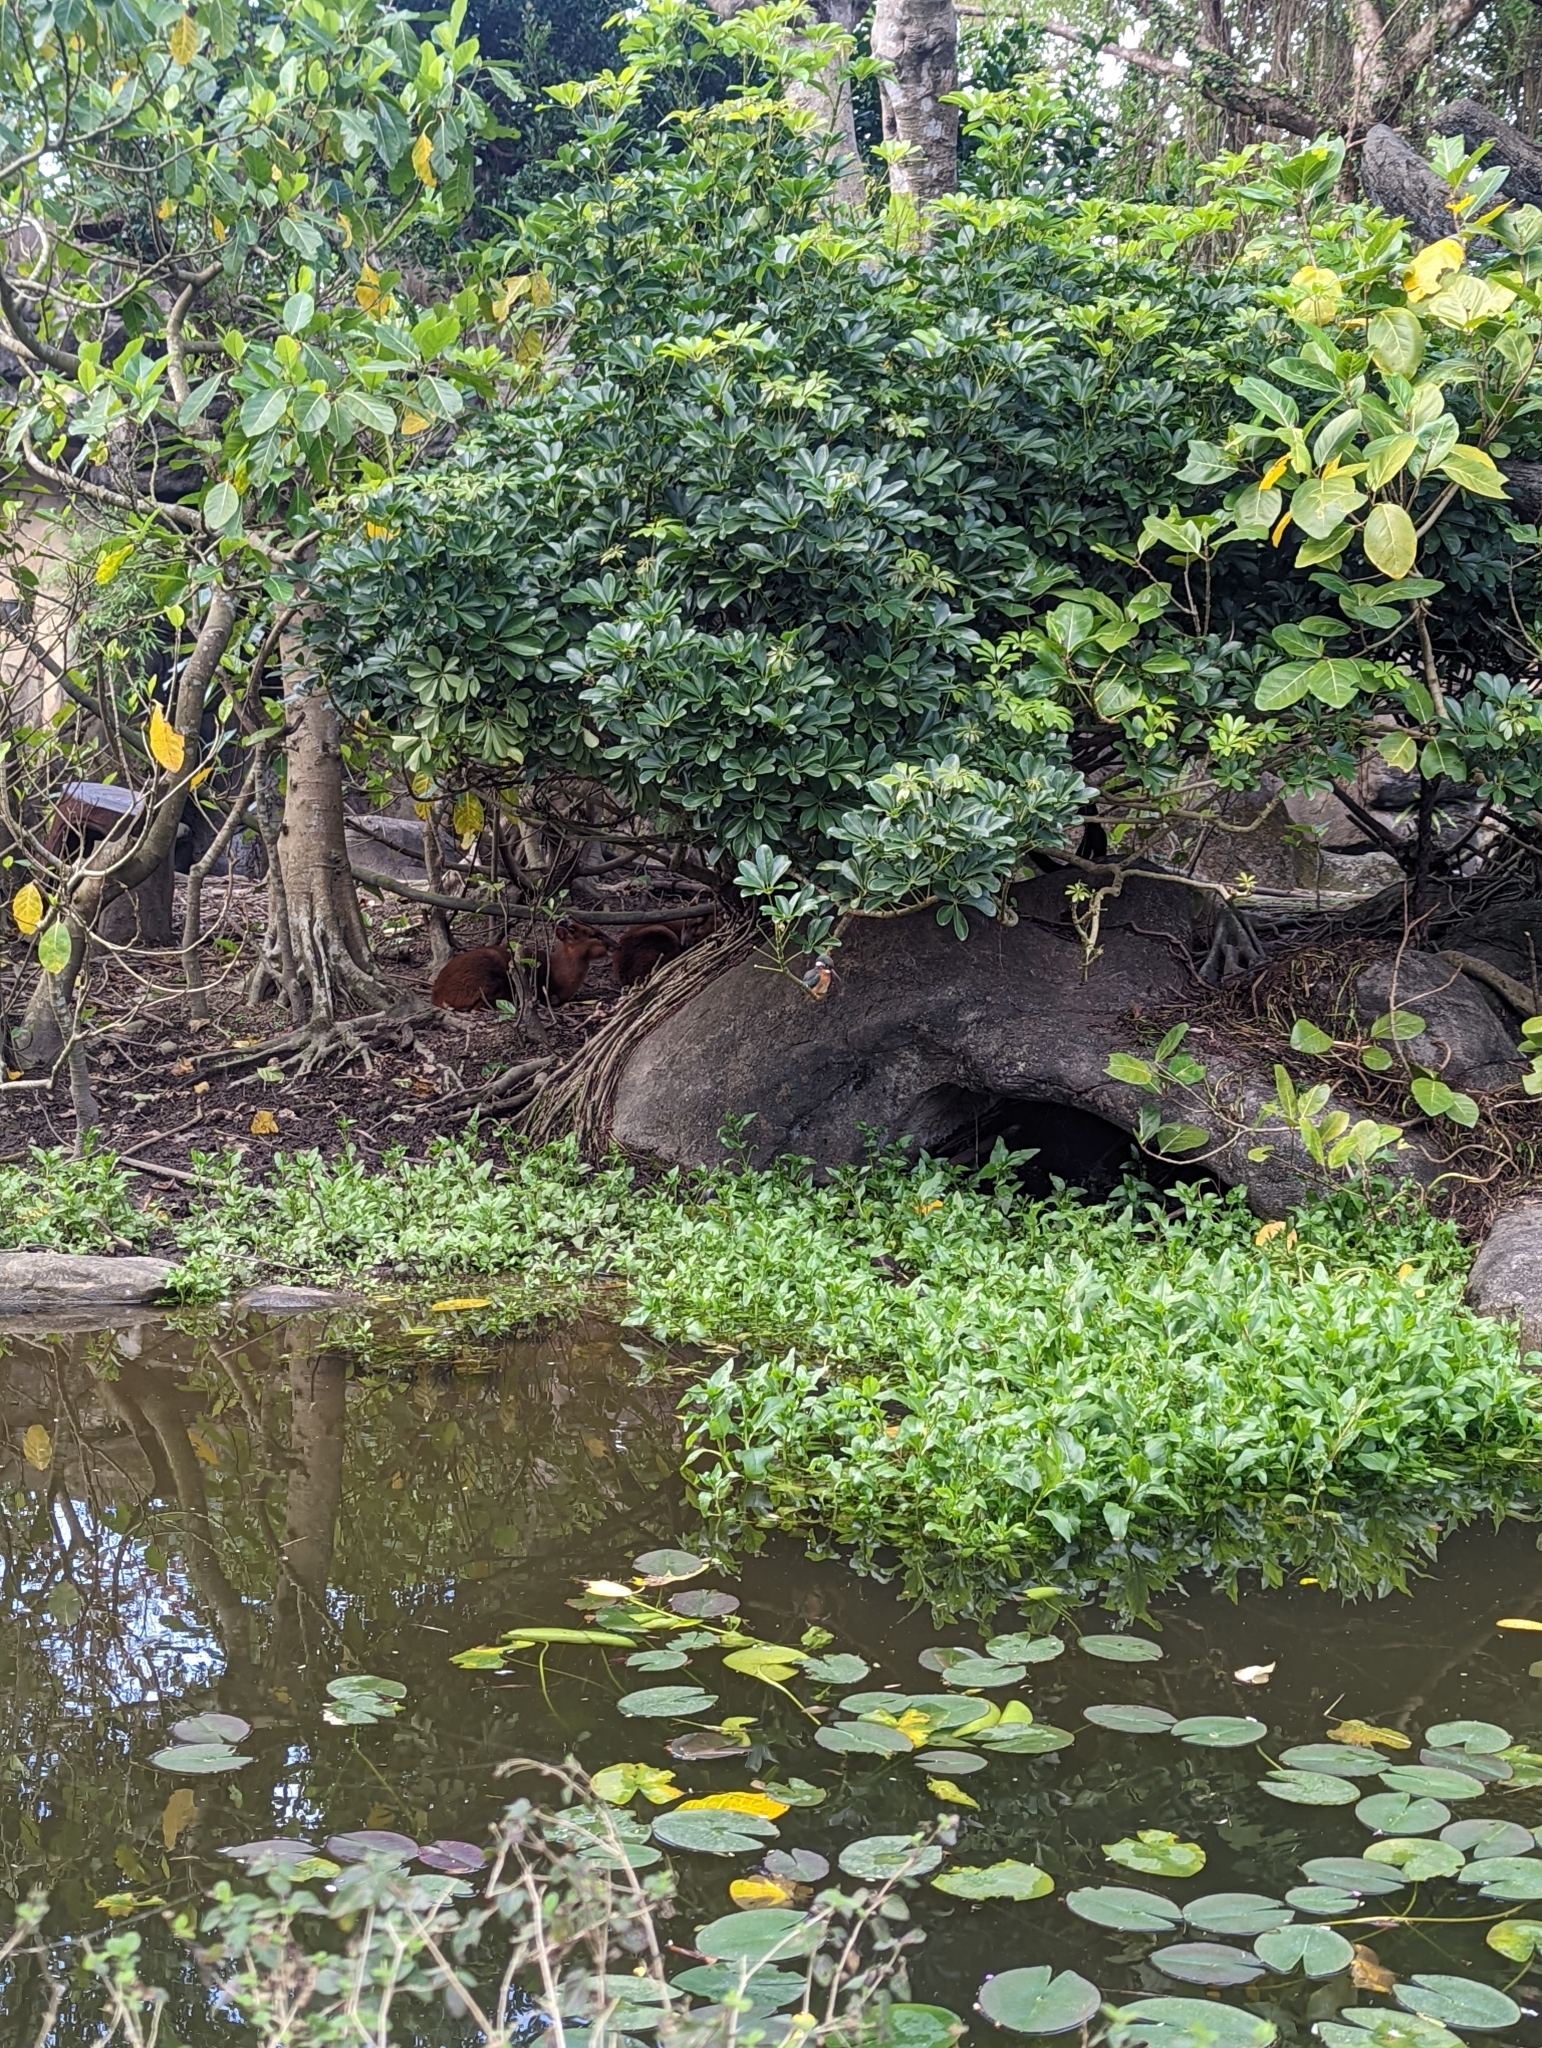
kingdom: Animalia
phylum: Chordata
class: Aves
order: Coraciiformes
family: Alcedinidae
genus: Alcedo
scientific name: Alcedo atthis
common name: Common kingfisher
